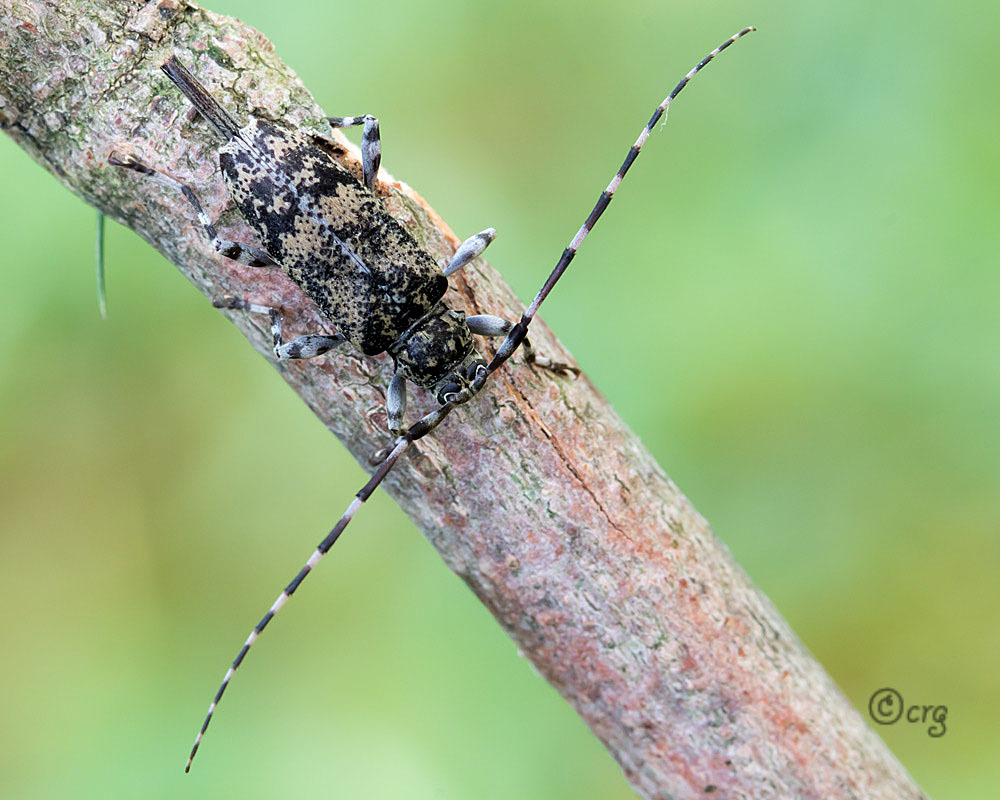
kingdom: Animalia
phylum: Arthropoda
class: Insecta
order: Coleoptera
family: Cerambycidae
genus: Graphisurus
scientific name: Graphisurus fasciatus
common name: Banded graphisurus
